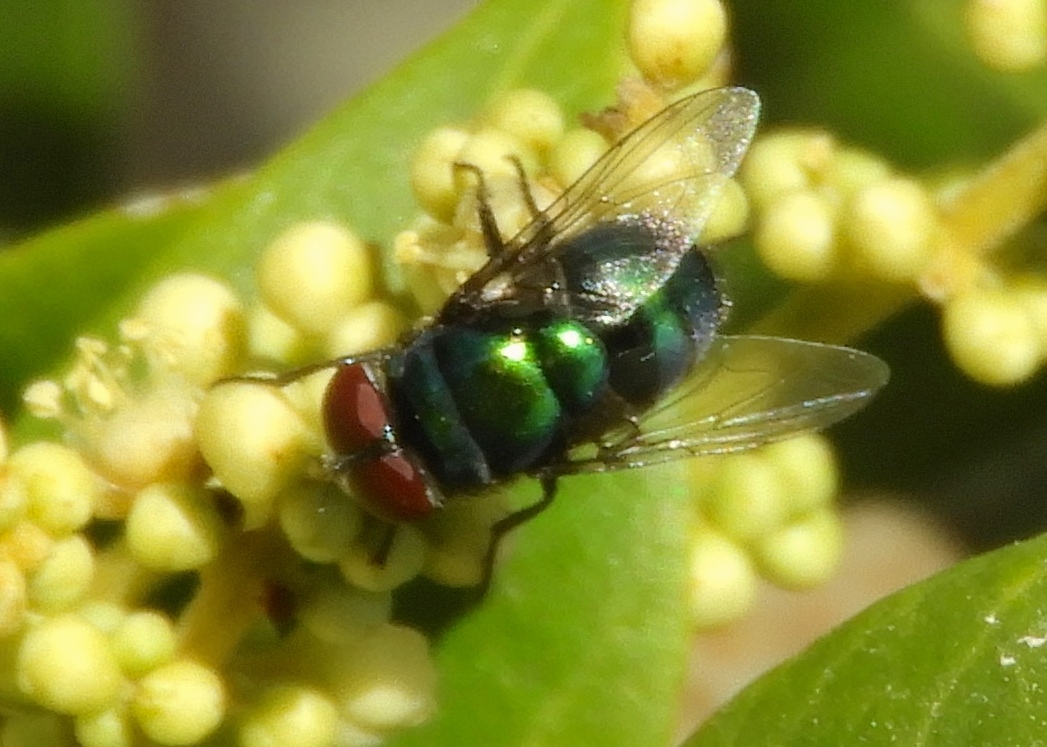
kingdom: Animalia
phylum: Arthropoda
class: Insecta
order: Diptera
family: Calliphoridae
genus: Chrysomya
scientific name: Chrysomya
